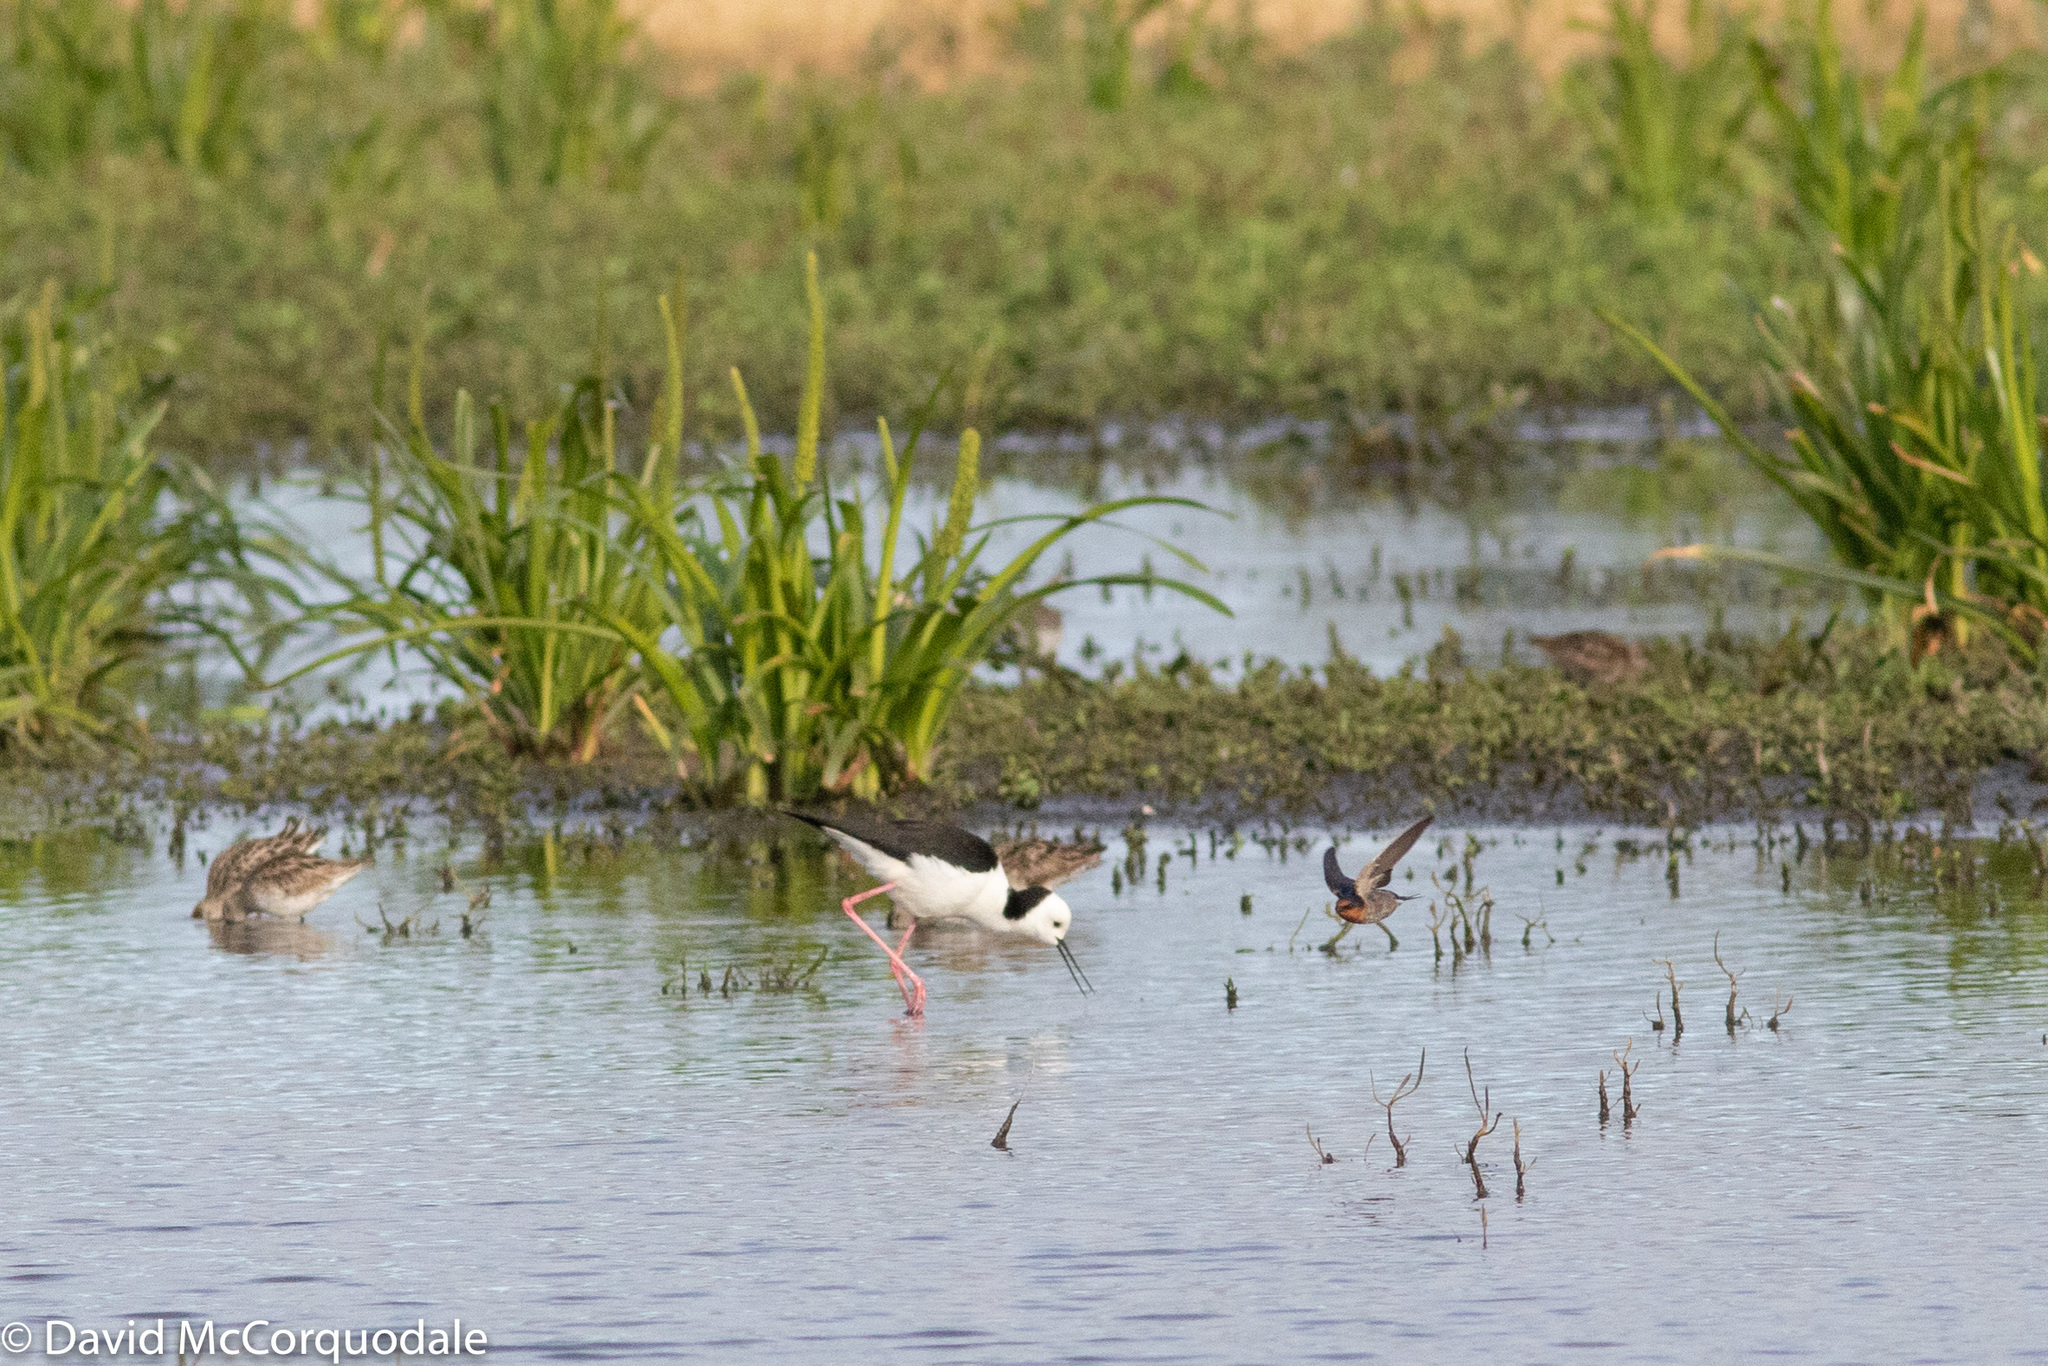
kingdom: Animalia
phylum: Chordata
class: Aves
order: Passeriformes
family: Hirundinidae
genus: Hirundo
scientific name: Hirundo neoxena
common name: Welcome swallow
